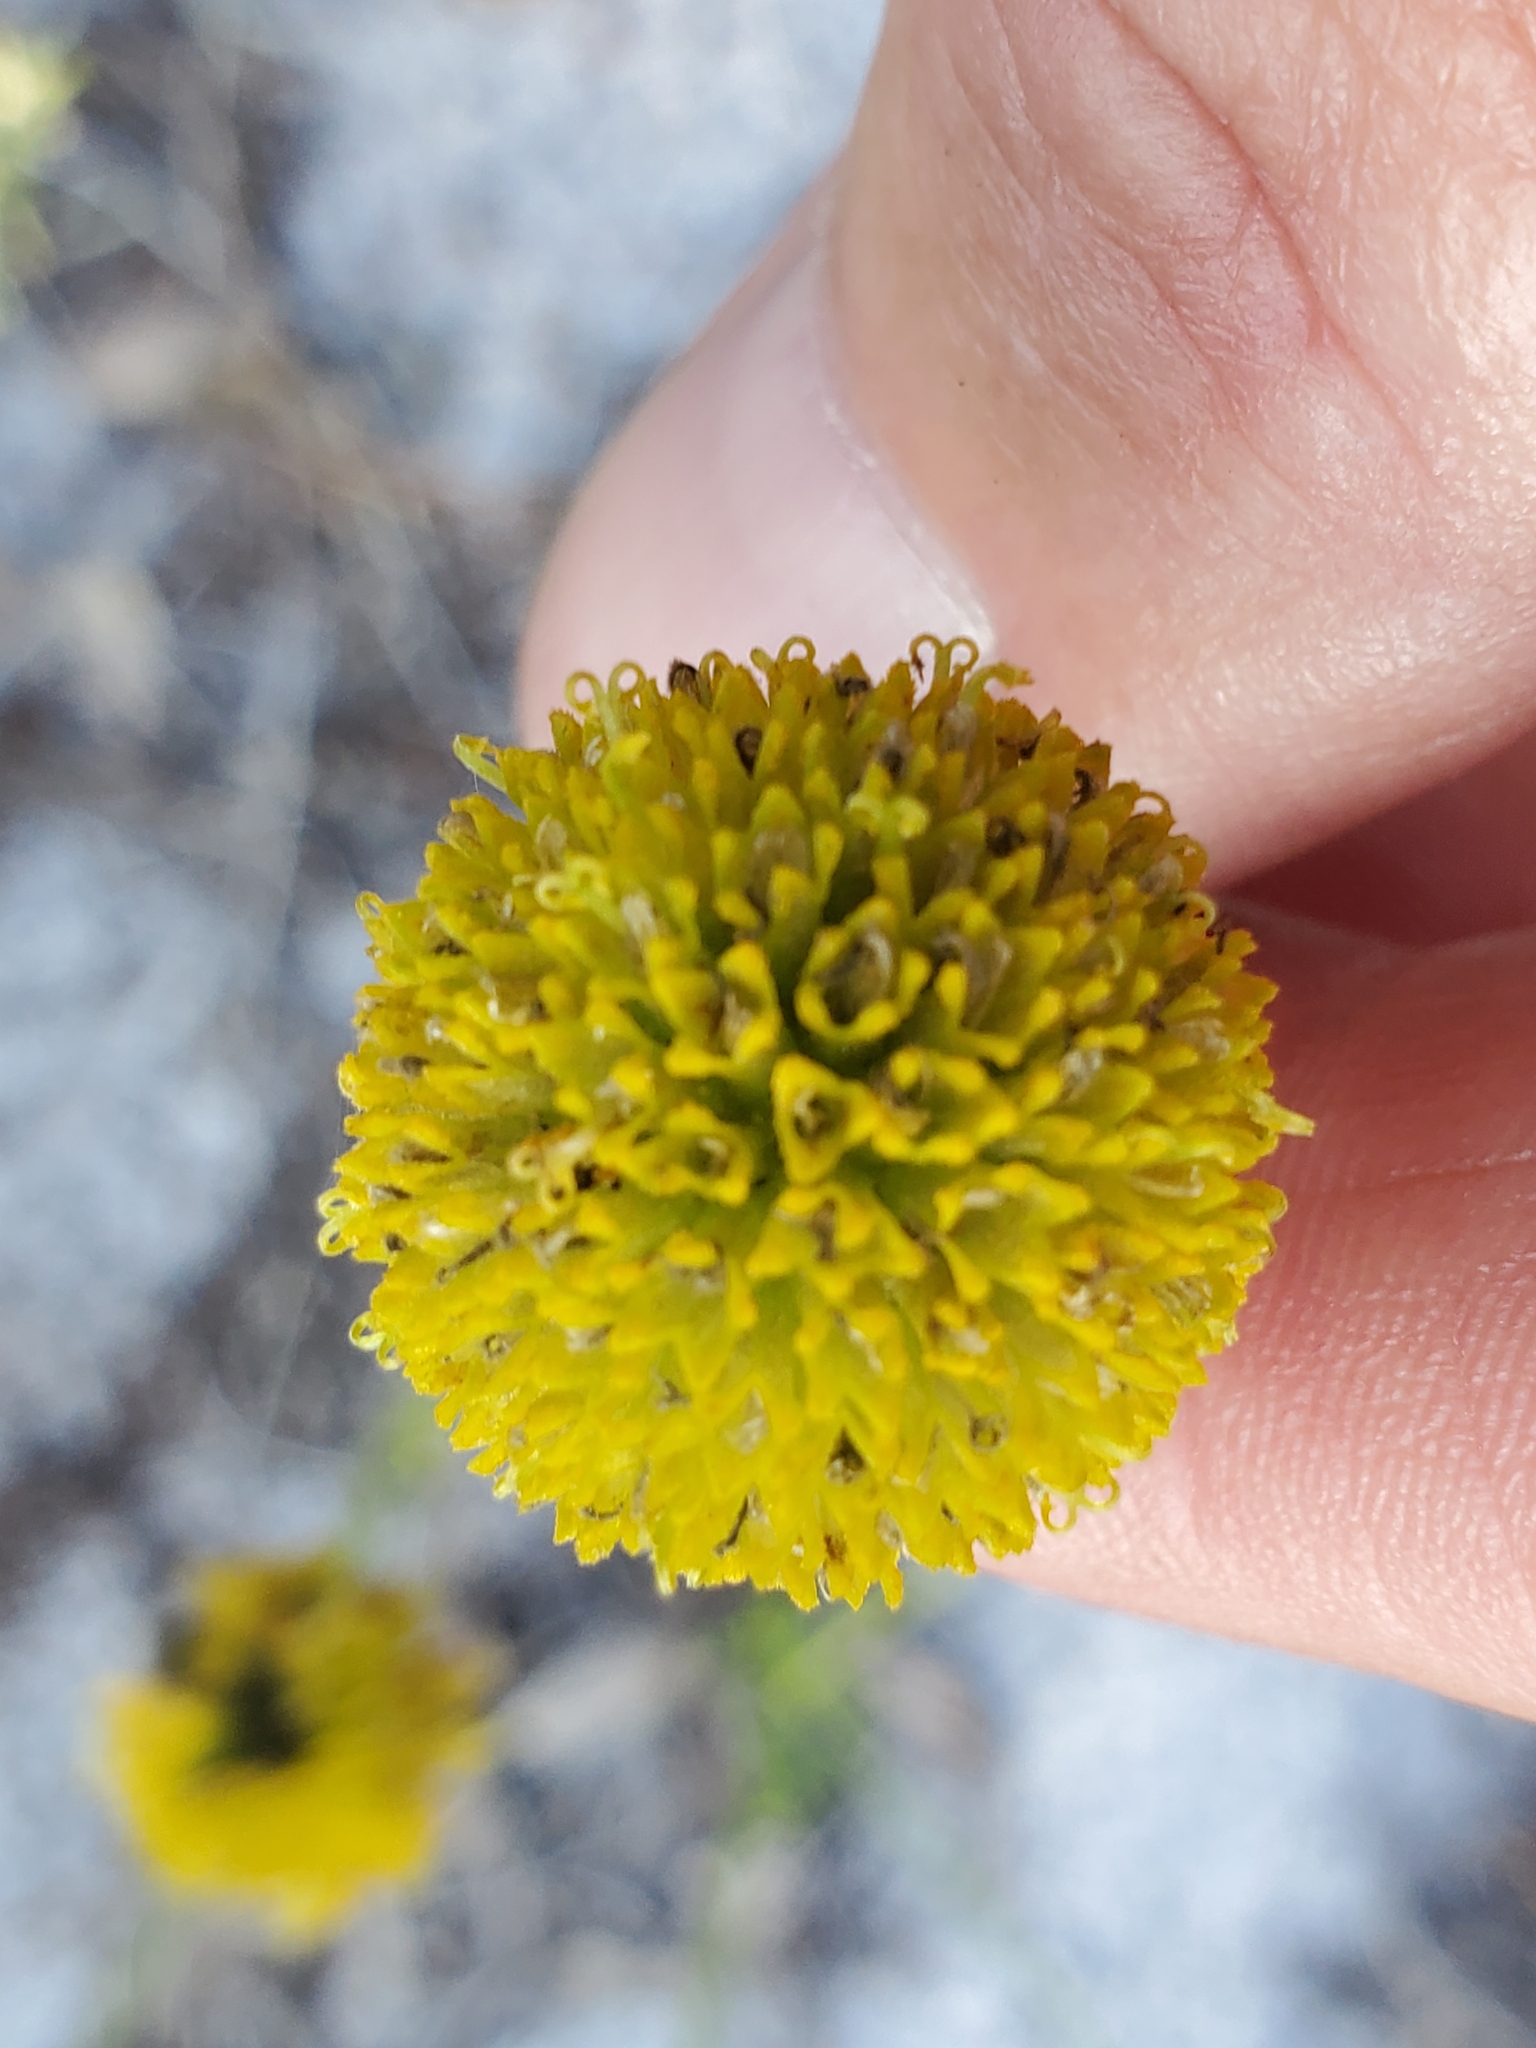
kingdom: Plantae
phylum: Tracheophyta
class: Magnoliopsida
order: Asterales
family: Asteraceae
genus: Balduina
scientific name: Balduina angustifolia
